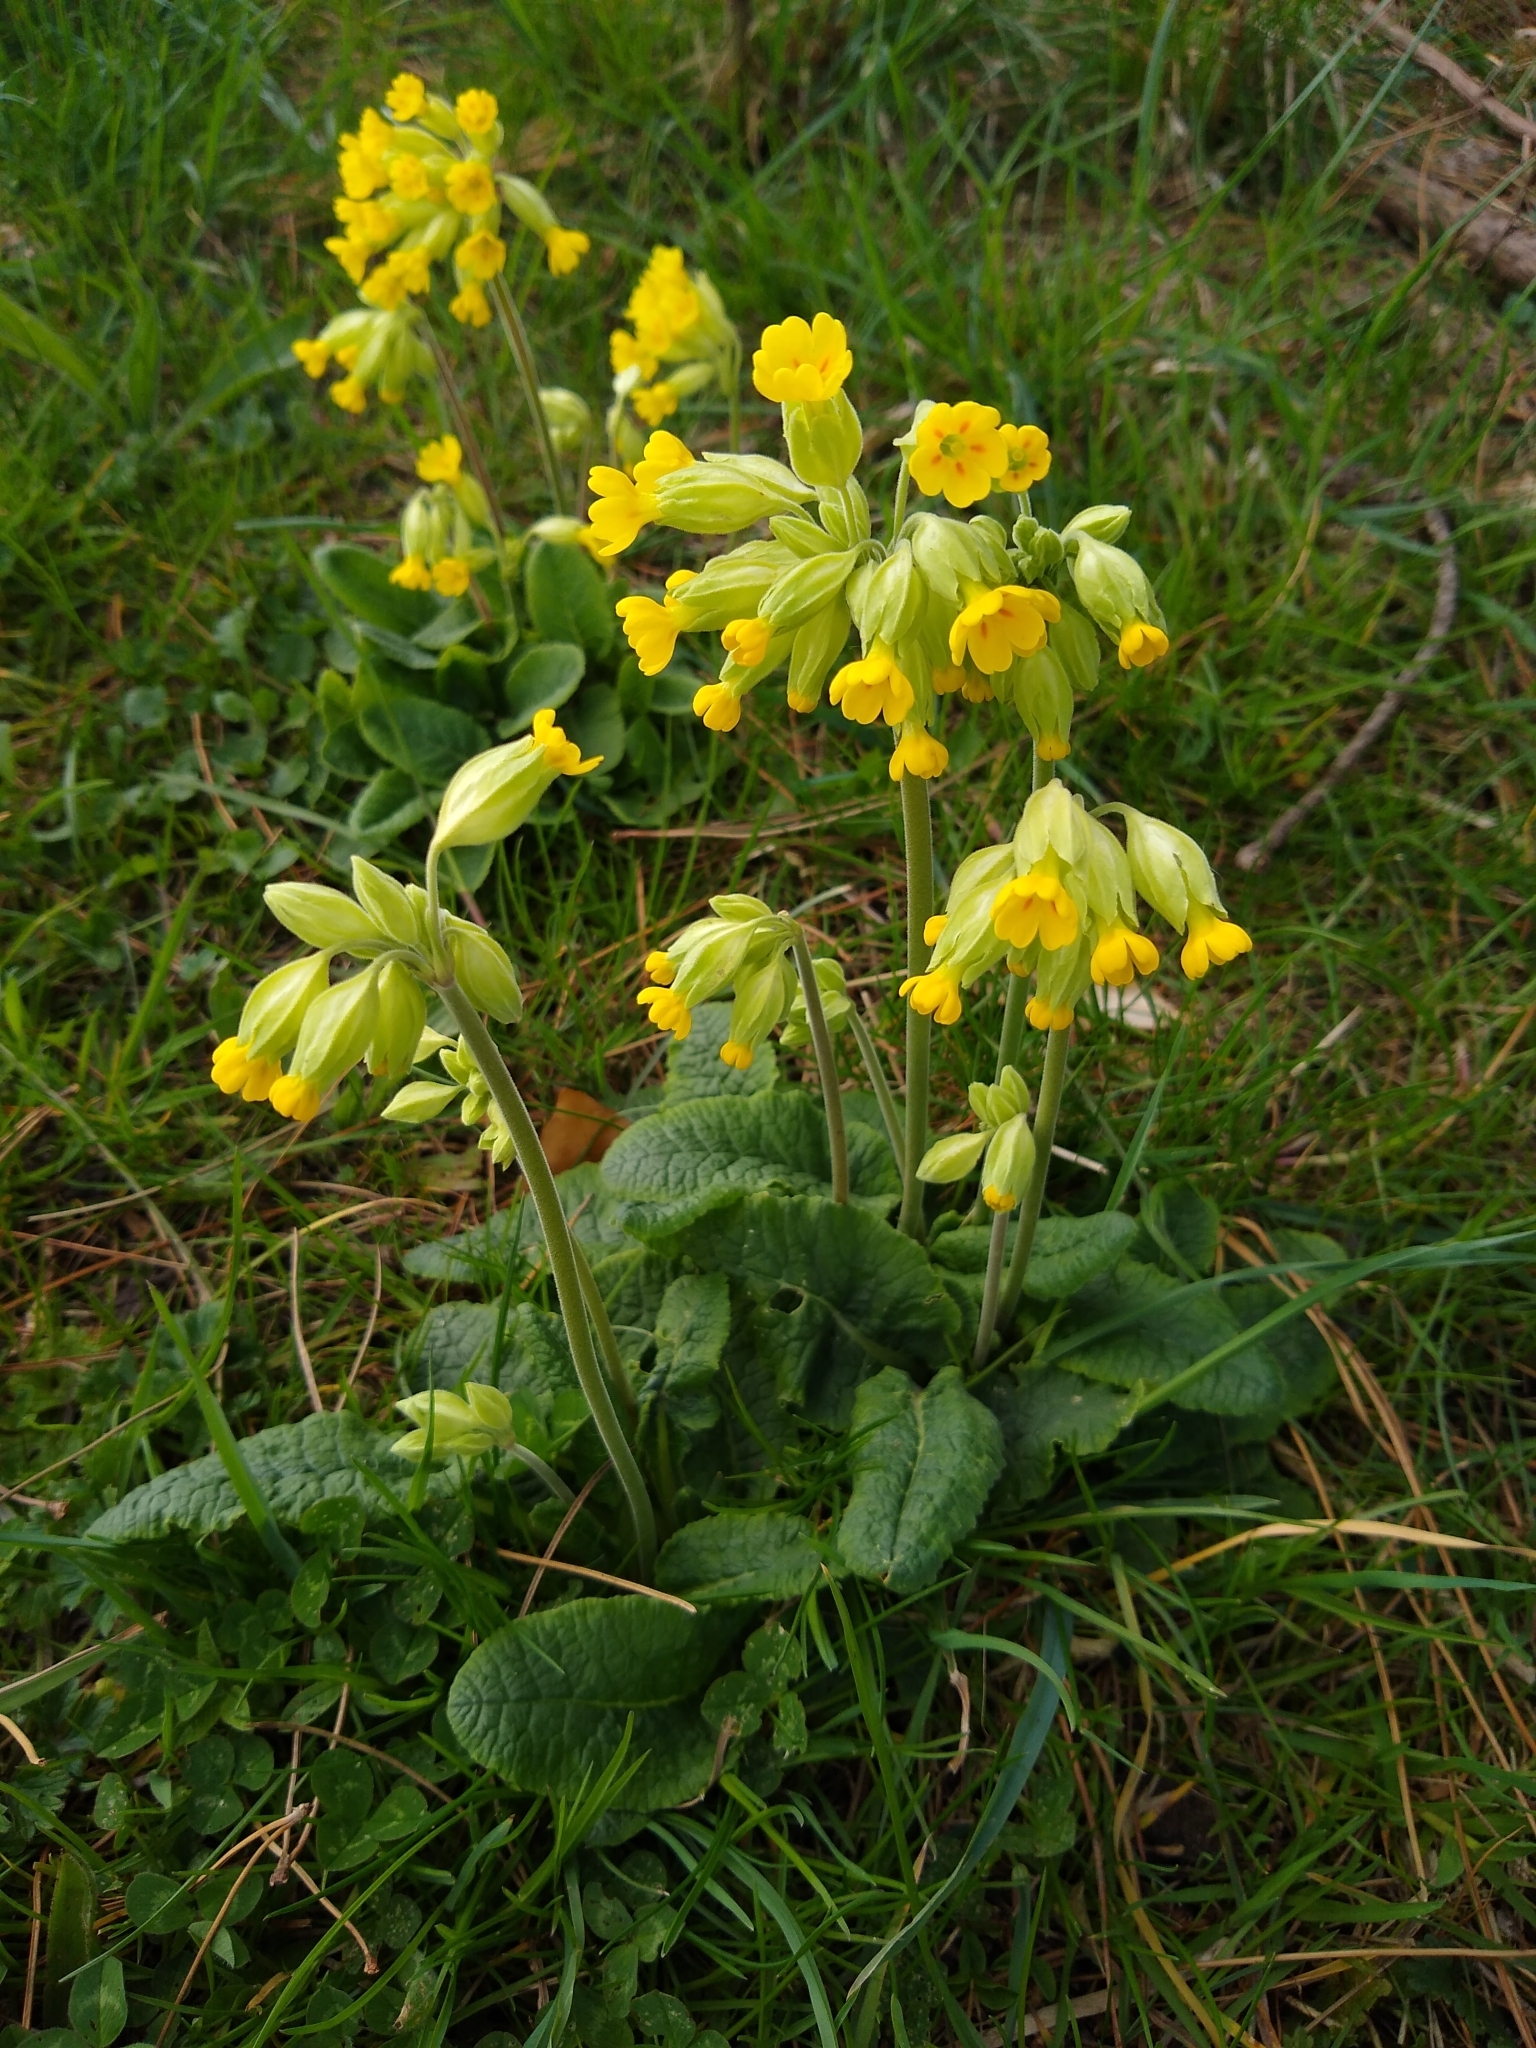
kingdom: Plantae
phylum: Tracheophyta
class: Magnoliopsida
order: Ericales
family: Primulaceae
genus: Primula
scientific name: Primula veris
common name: Cowslip
